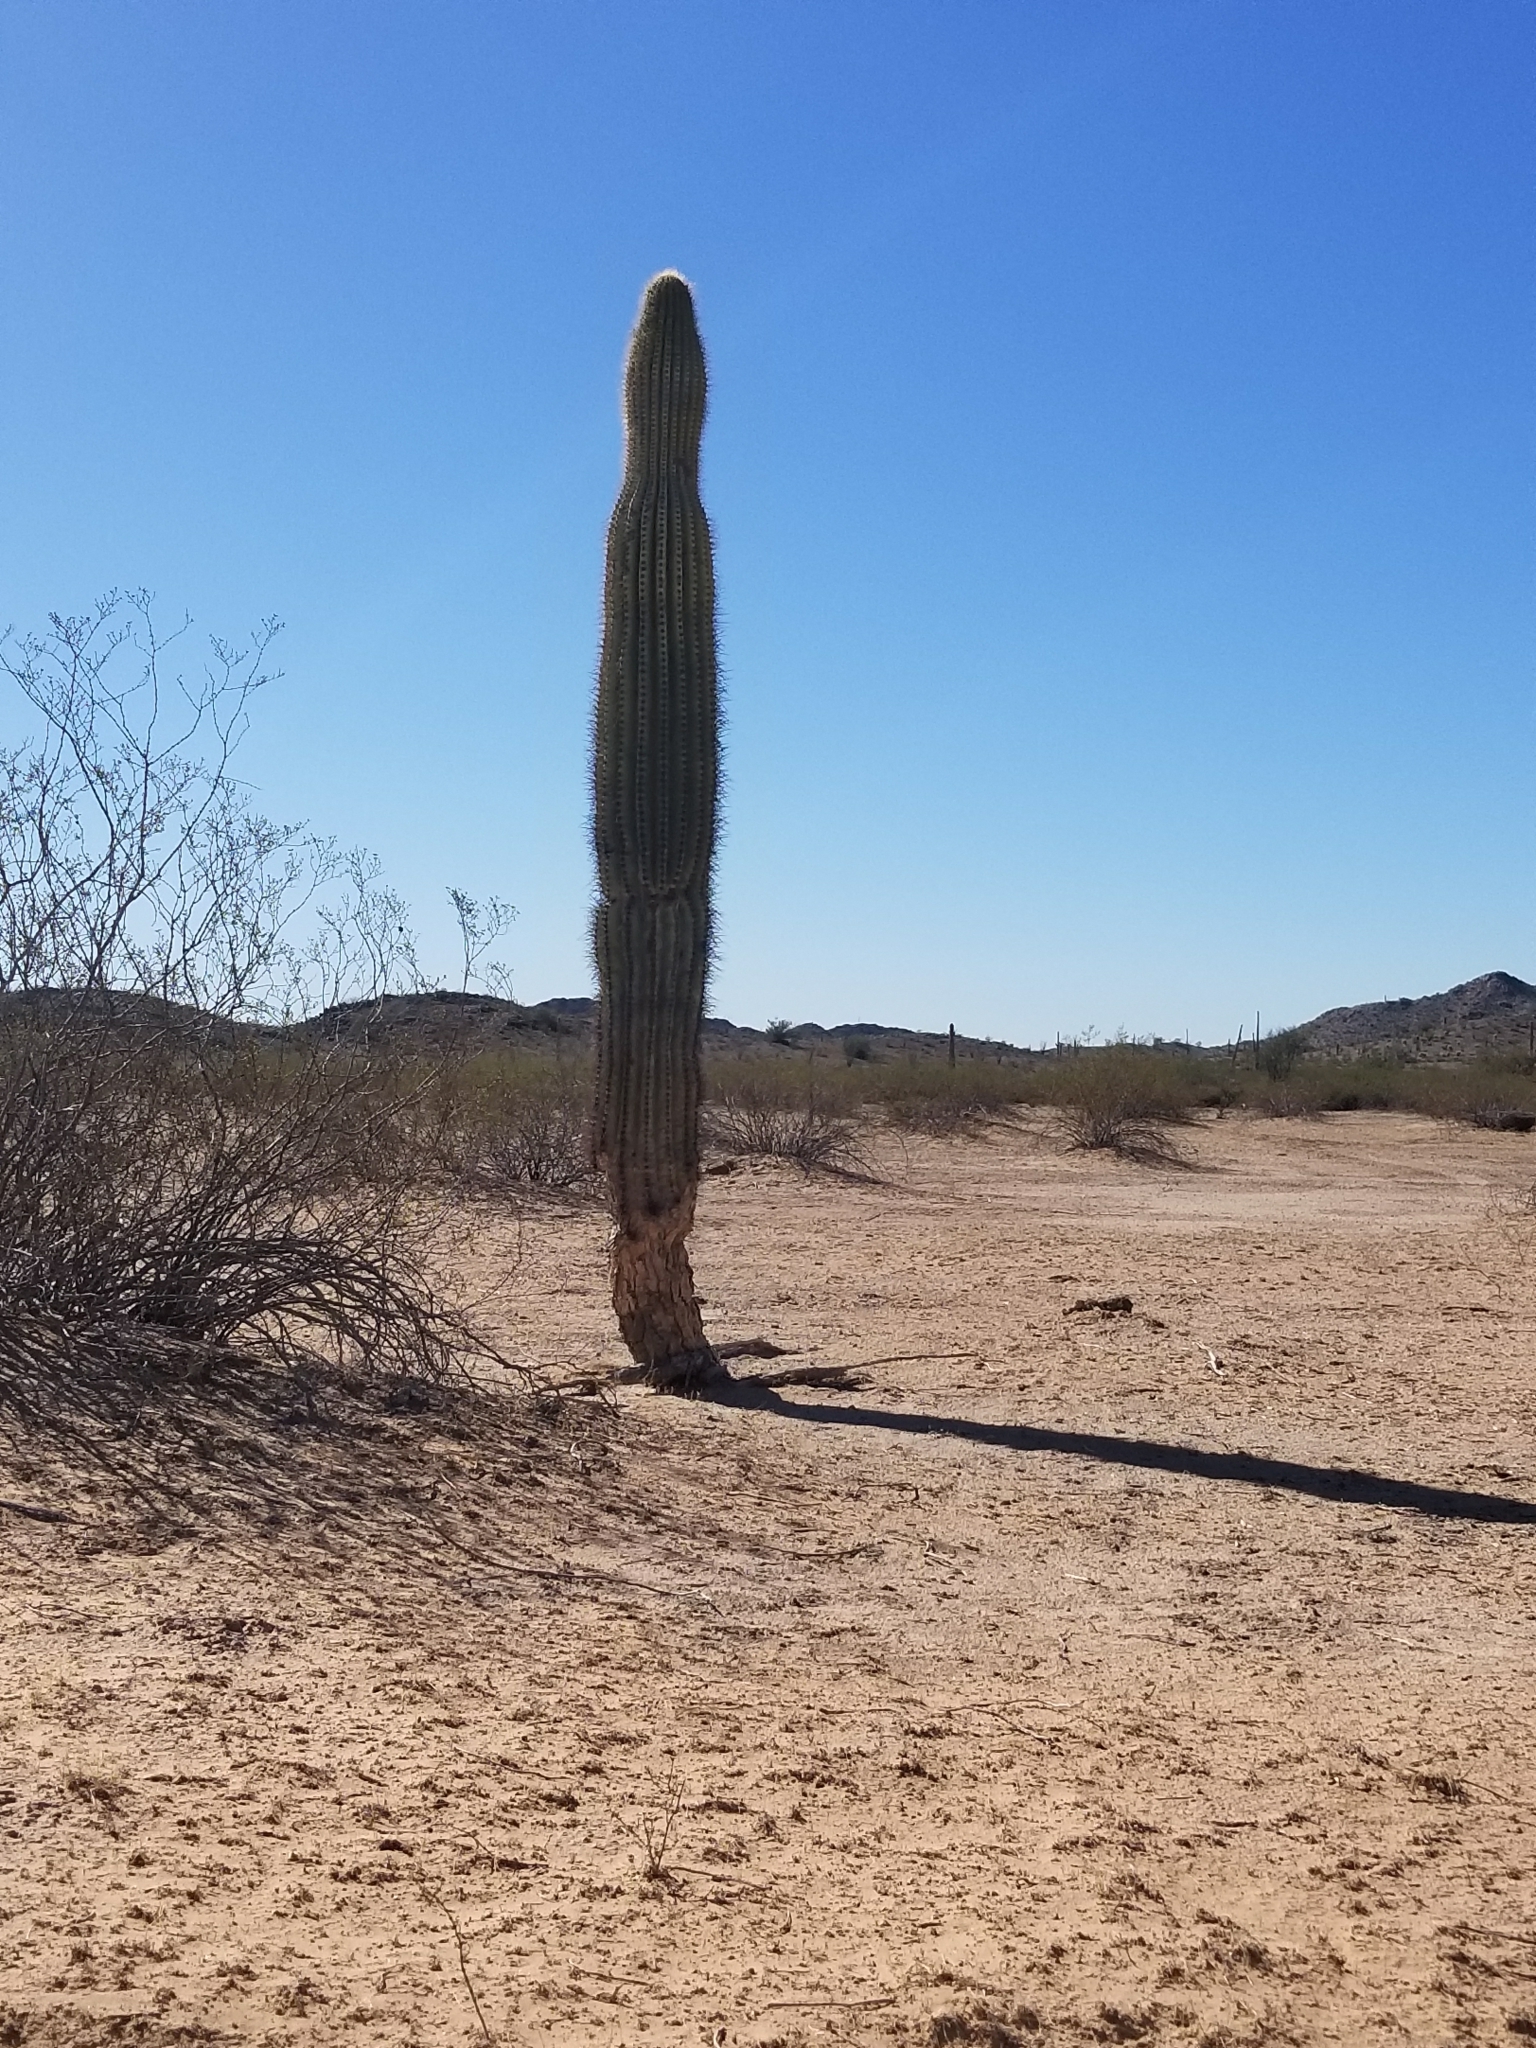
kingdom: Plantae
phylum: Tracheophyta
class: Magnoliopsida
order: Caryophyllales
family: Cactaceae
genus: Carnegiea
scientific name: Carnegiea gigantea
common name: Saguaro
